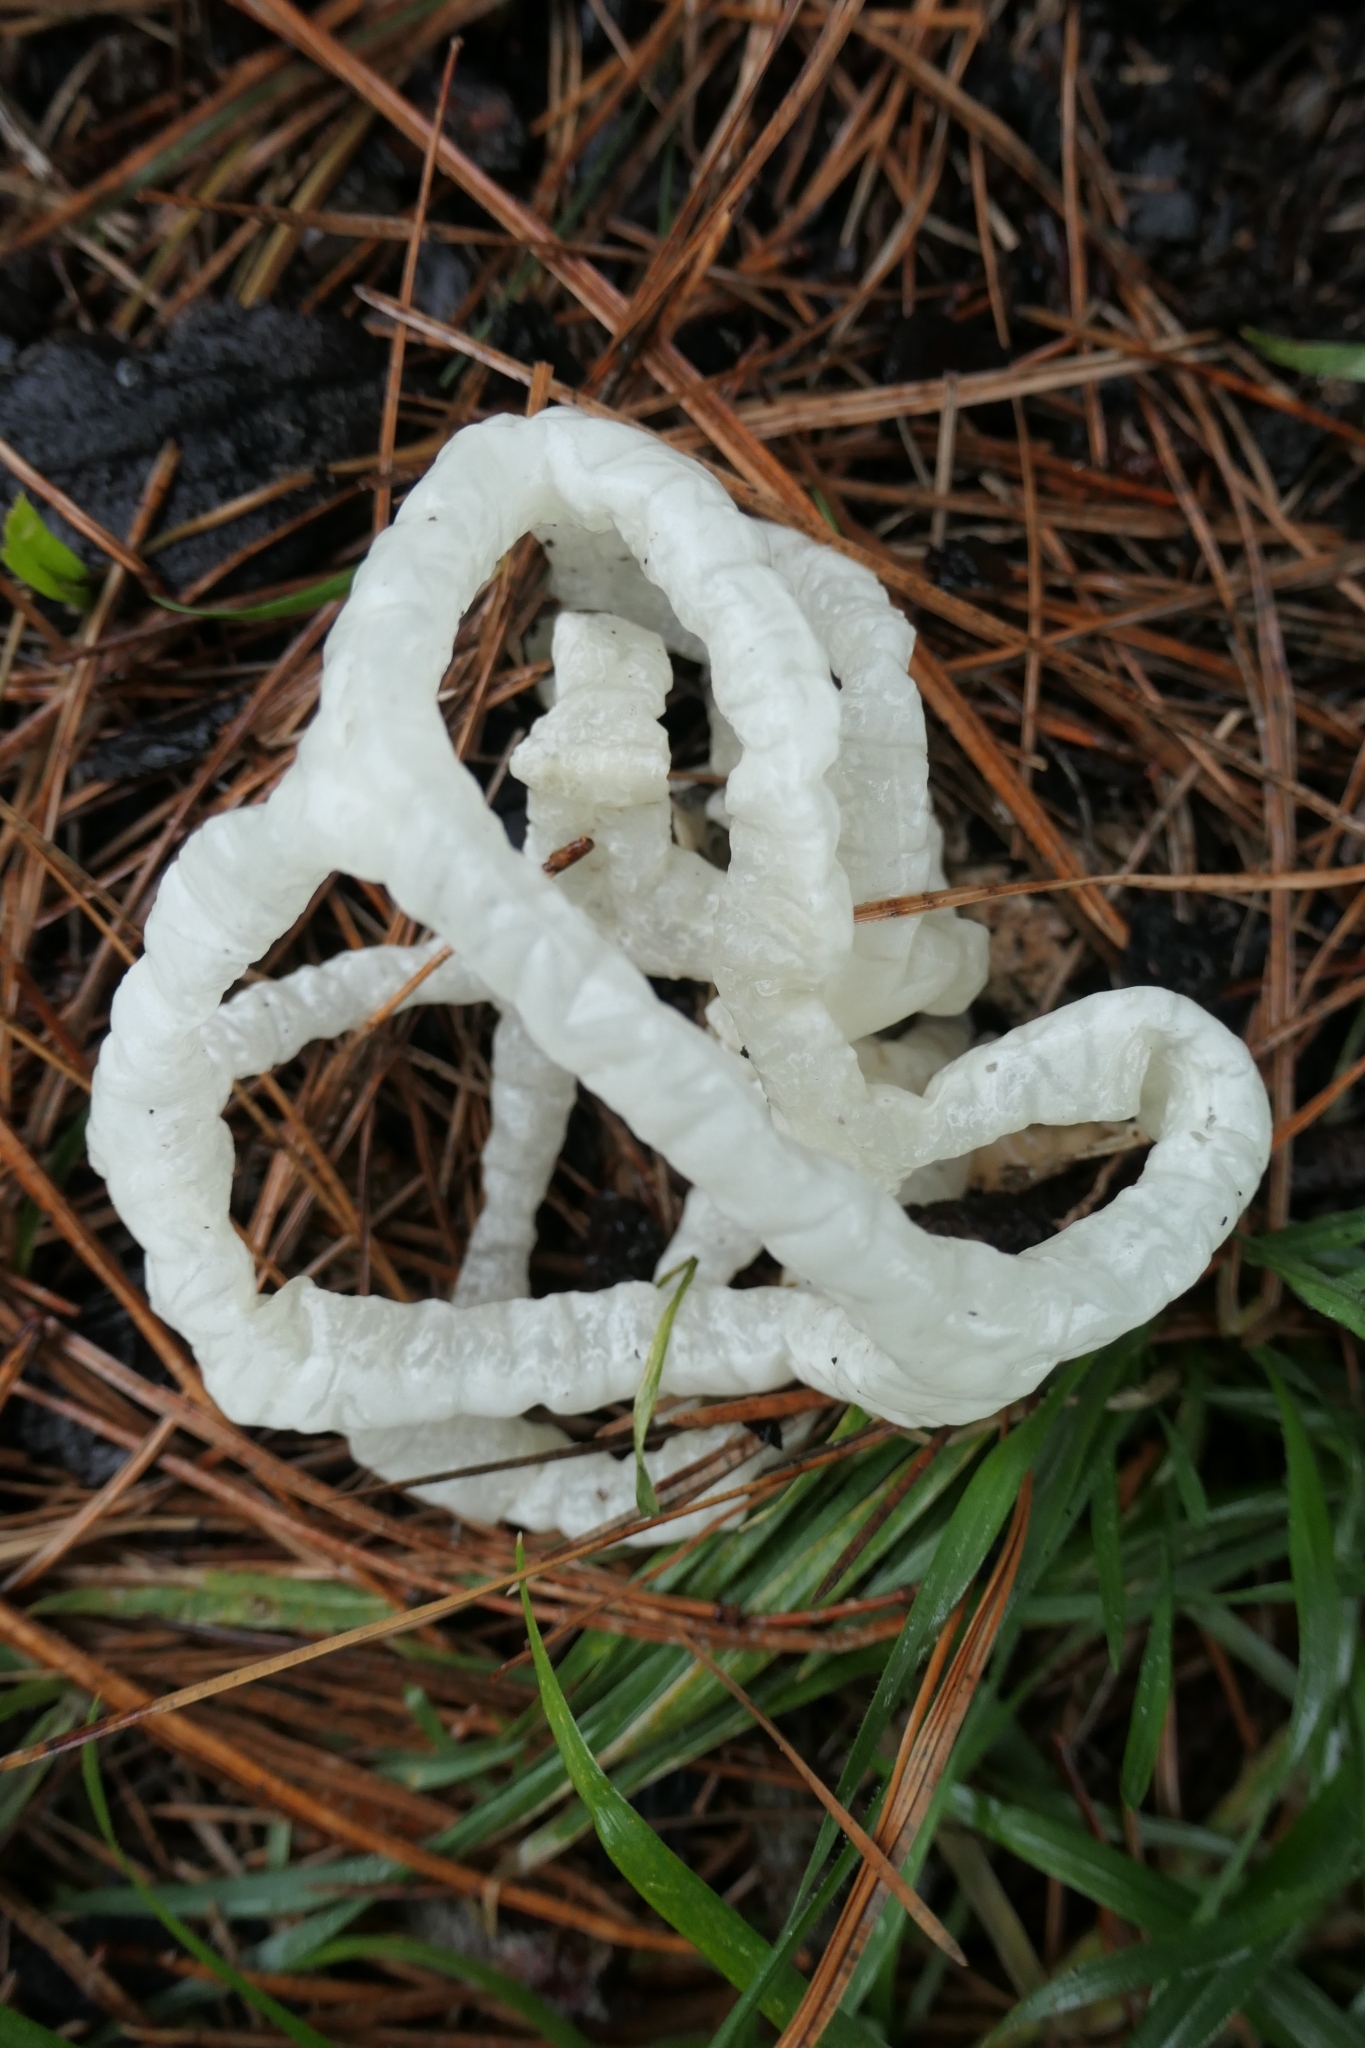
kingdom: Fungi
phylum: Basidiomycota
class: Agaricomycetes
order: Phallales
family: Phallaceae
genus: Ileodictyon
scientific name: Ileodictyon cibarium
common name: Basket fungus
